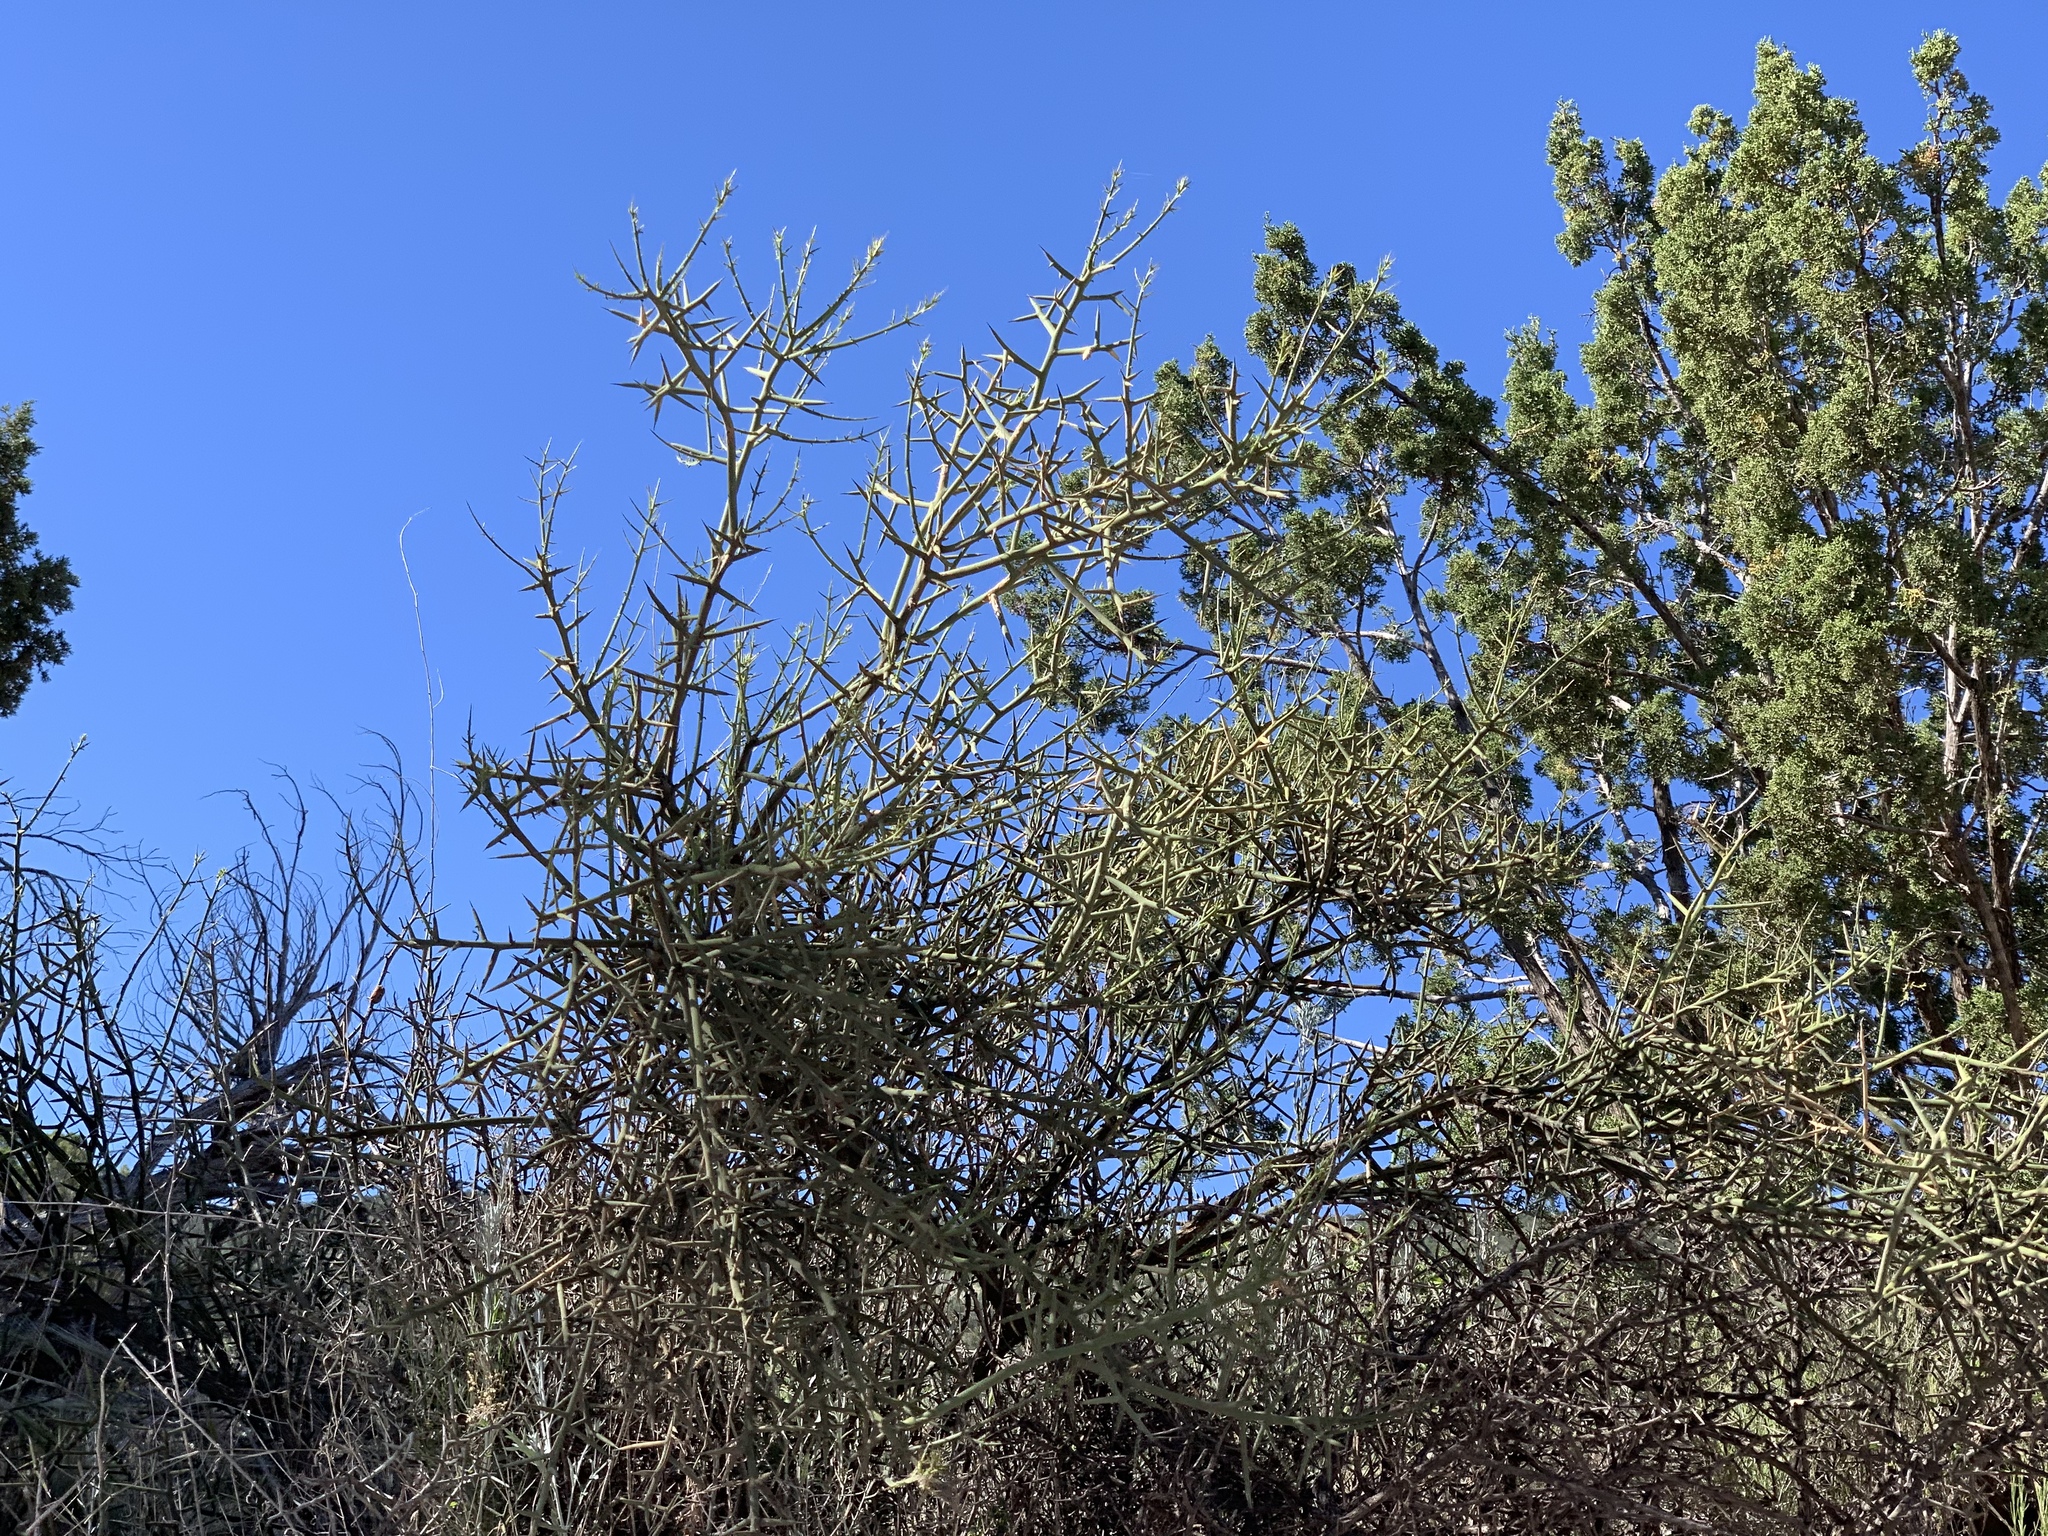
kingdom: Plantae
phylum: Tracheophyta
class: Magnoliopsida
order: Brassicales
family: Koeberliniaceae
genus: Koeberlinia
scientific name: Koeberlinia spinosa
